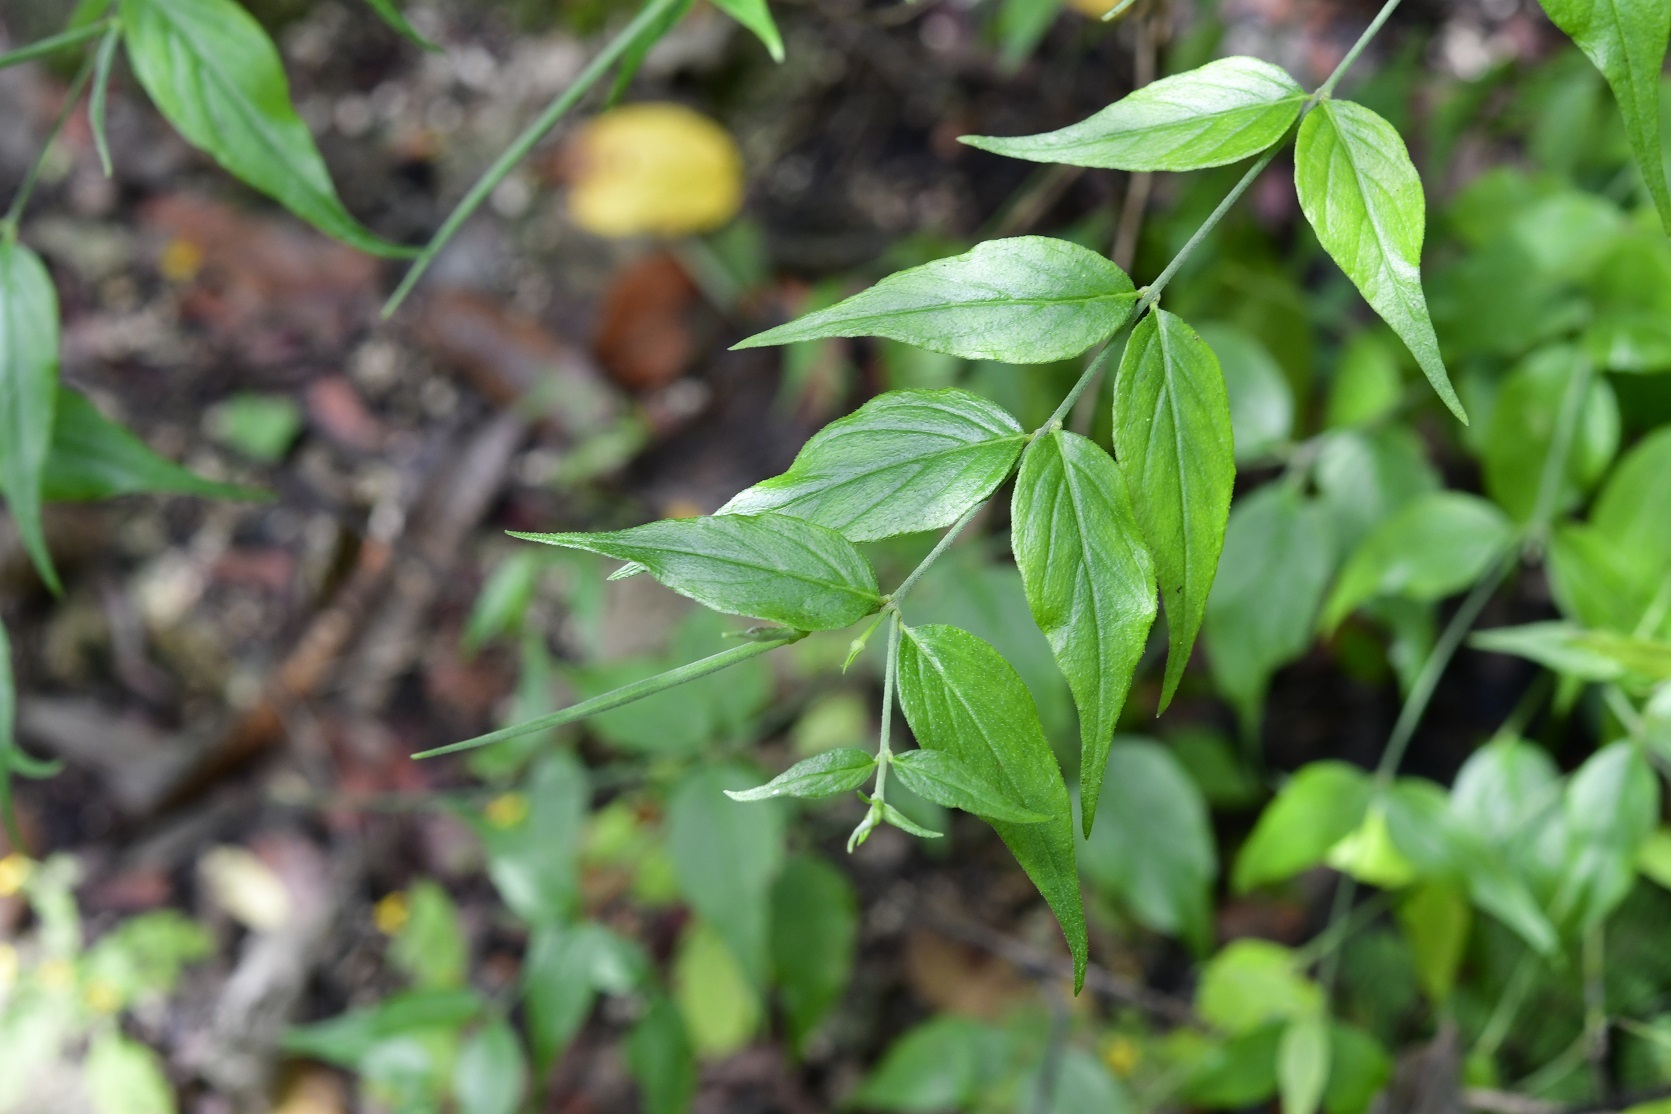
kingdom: Plantae
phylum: Tracheophyta
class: Magnoliopsida
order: Gentianales
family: Apocynaceae
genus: Haplophyton
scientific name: Haplophyton cimicidum
